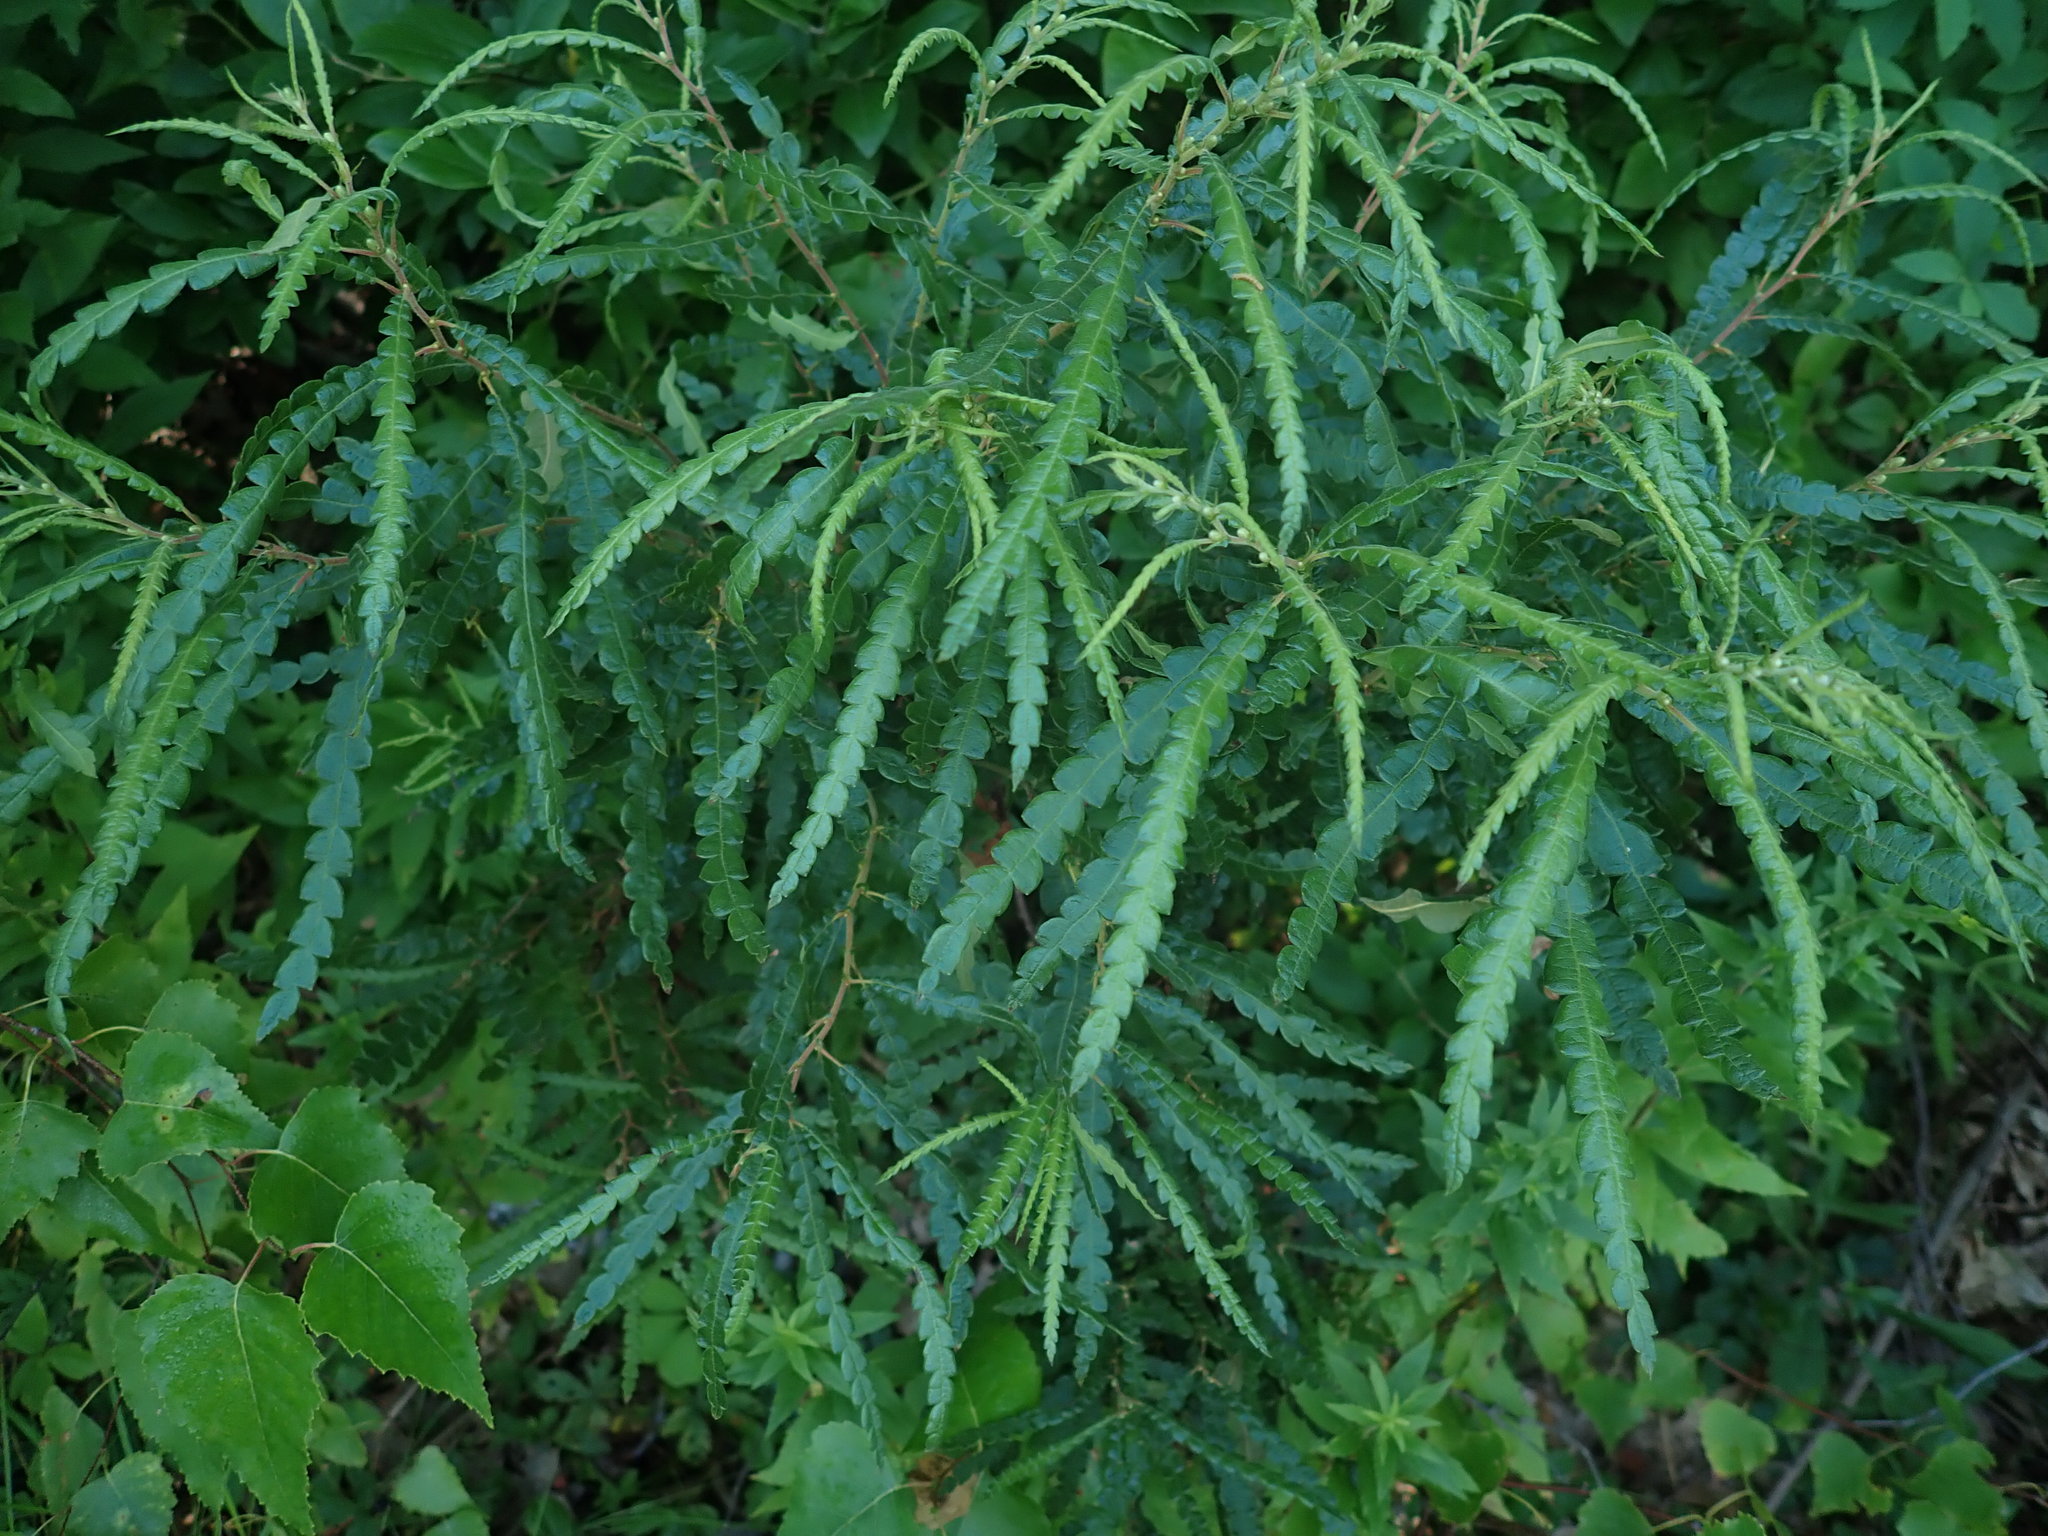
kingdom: Plantae
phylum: Tracheophyta
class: Magnoliopsida
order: Fagales
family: Myricaceae
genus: Comptonia
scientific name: Comptonia peregrina
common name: Sweet-fern
